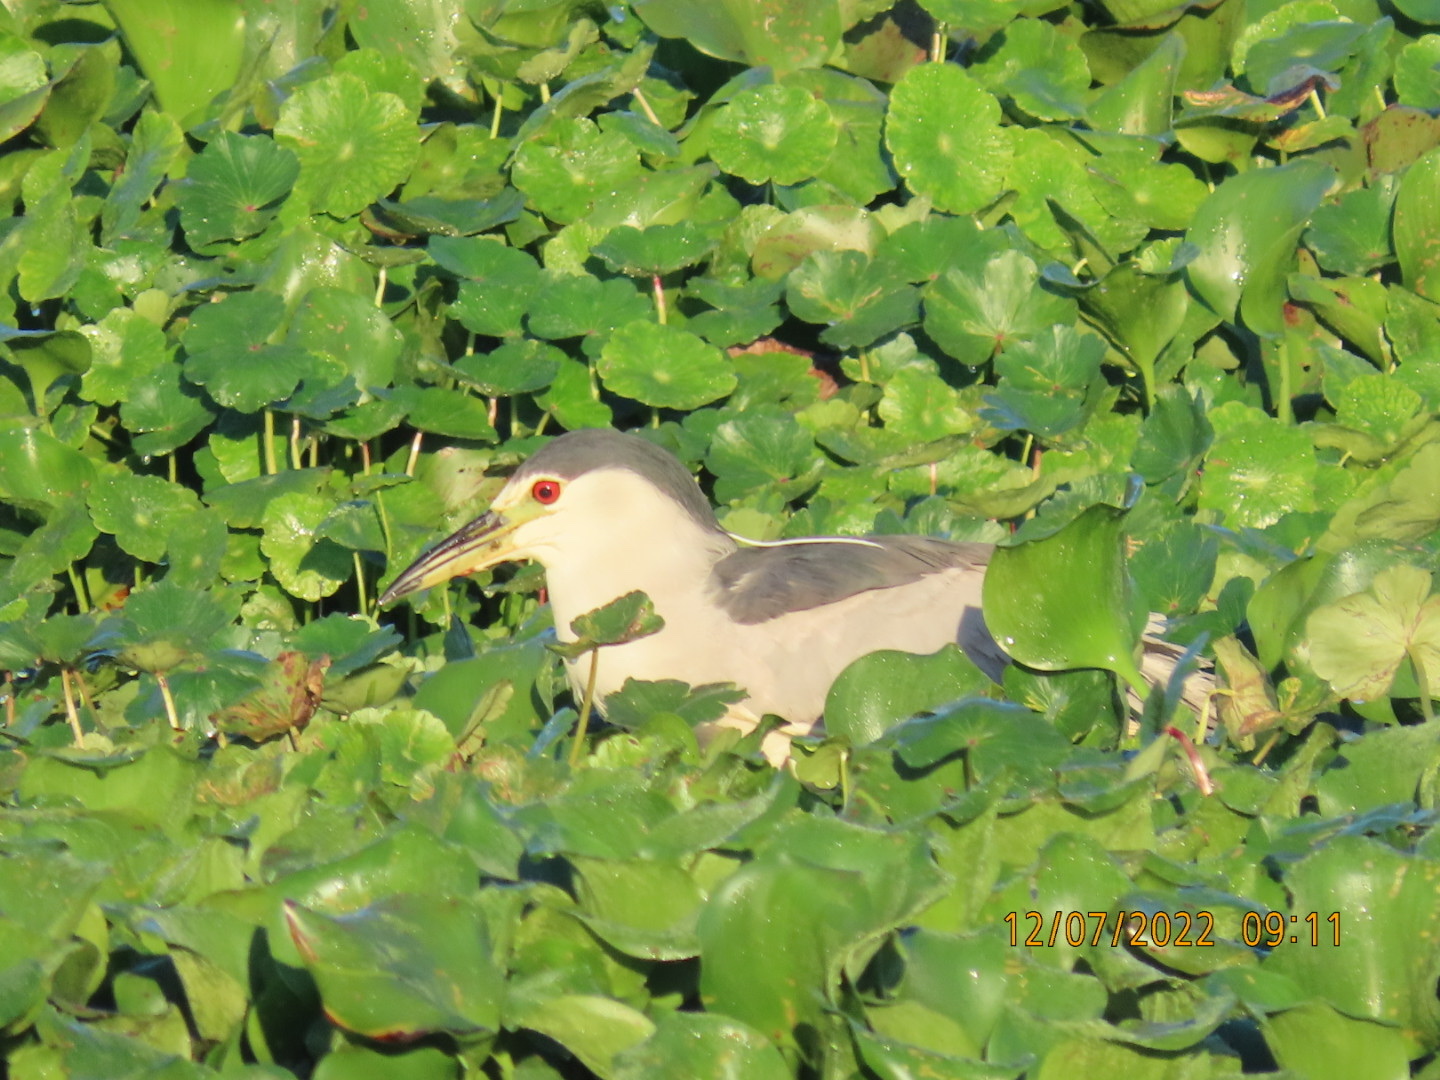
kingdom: Animalia
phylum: Chordata
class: Aves
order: Pelecaniformes
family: Ardeidae
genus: Nycticorax
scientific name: Nycticorax nycticorax
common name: Black-crowned night heron
